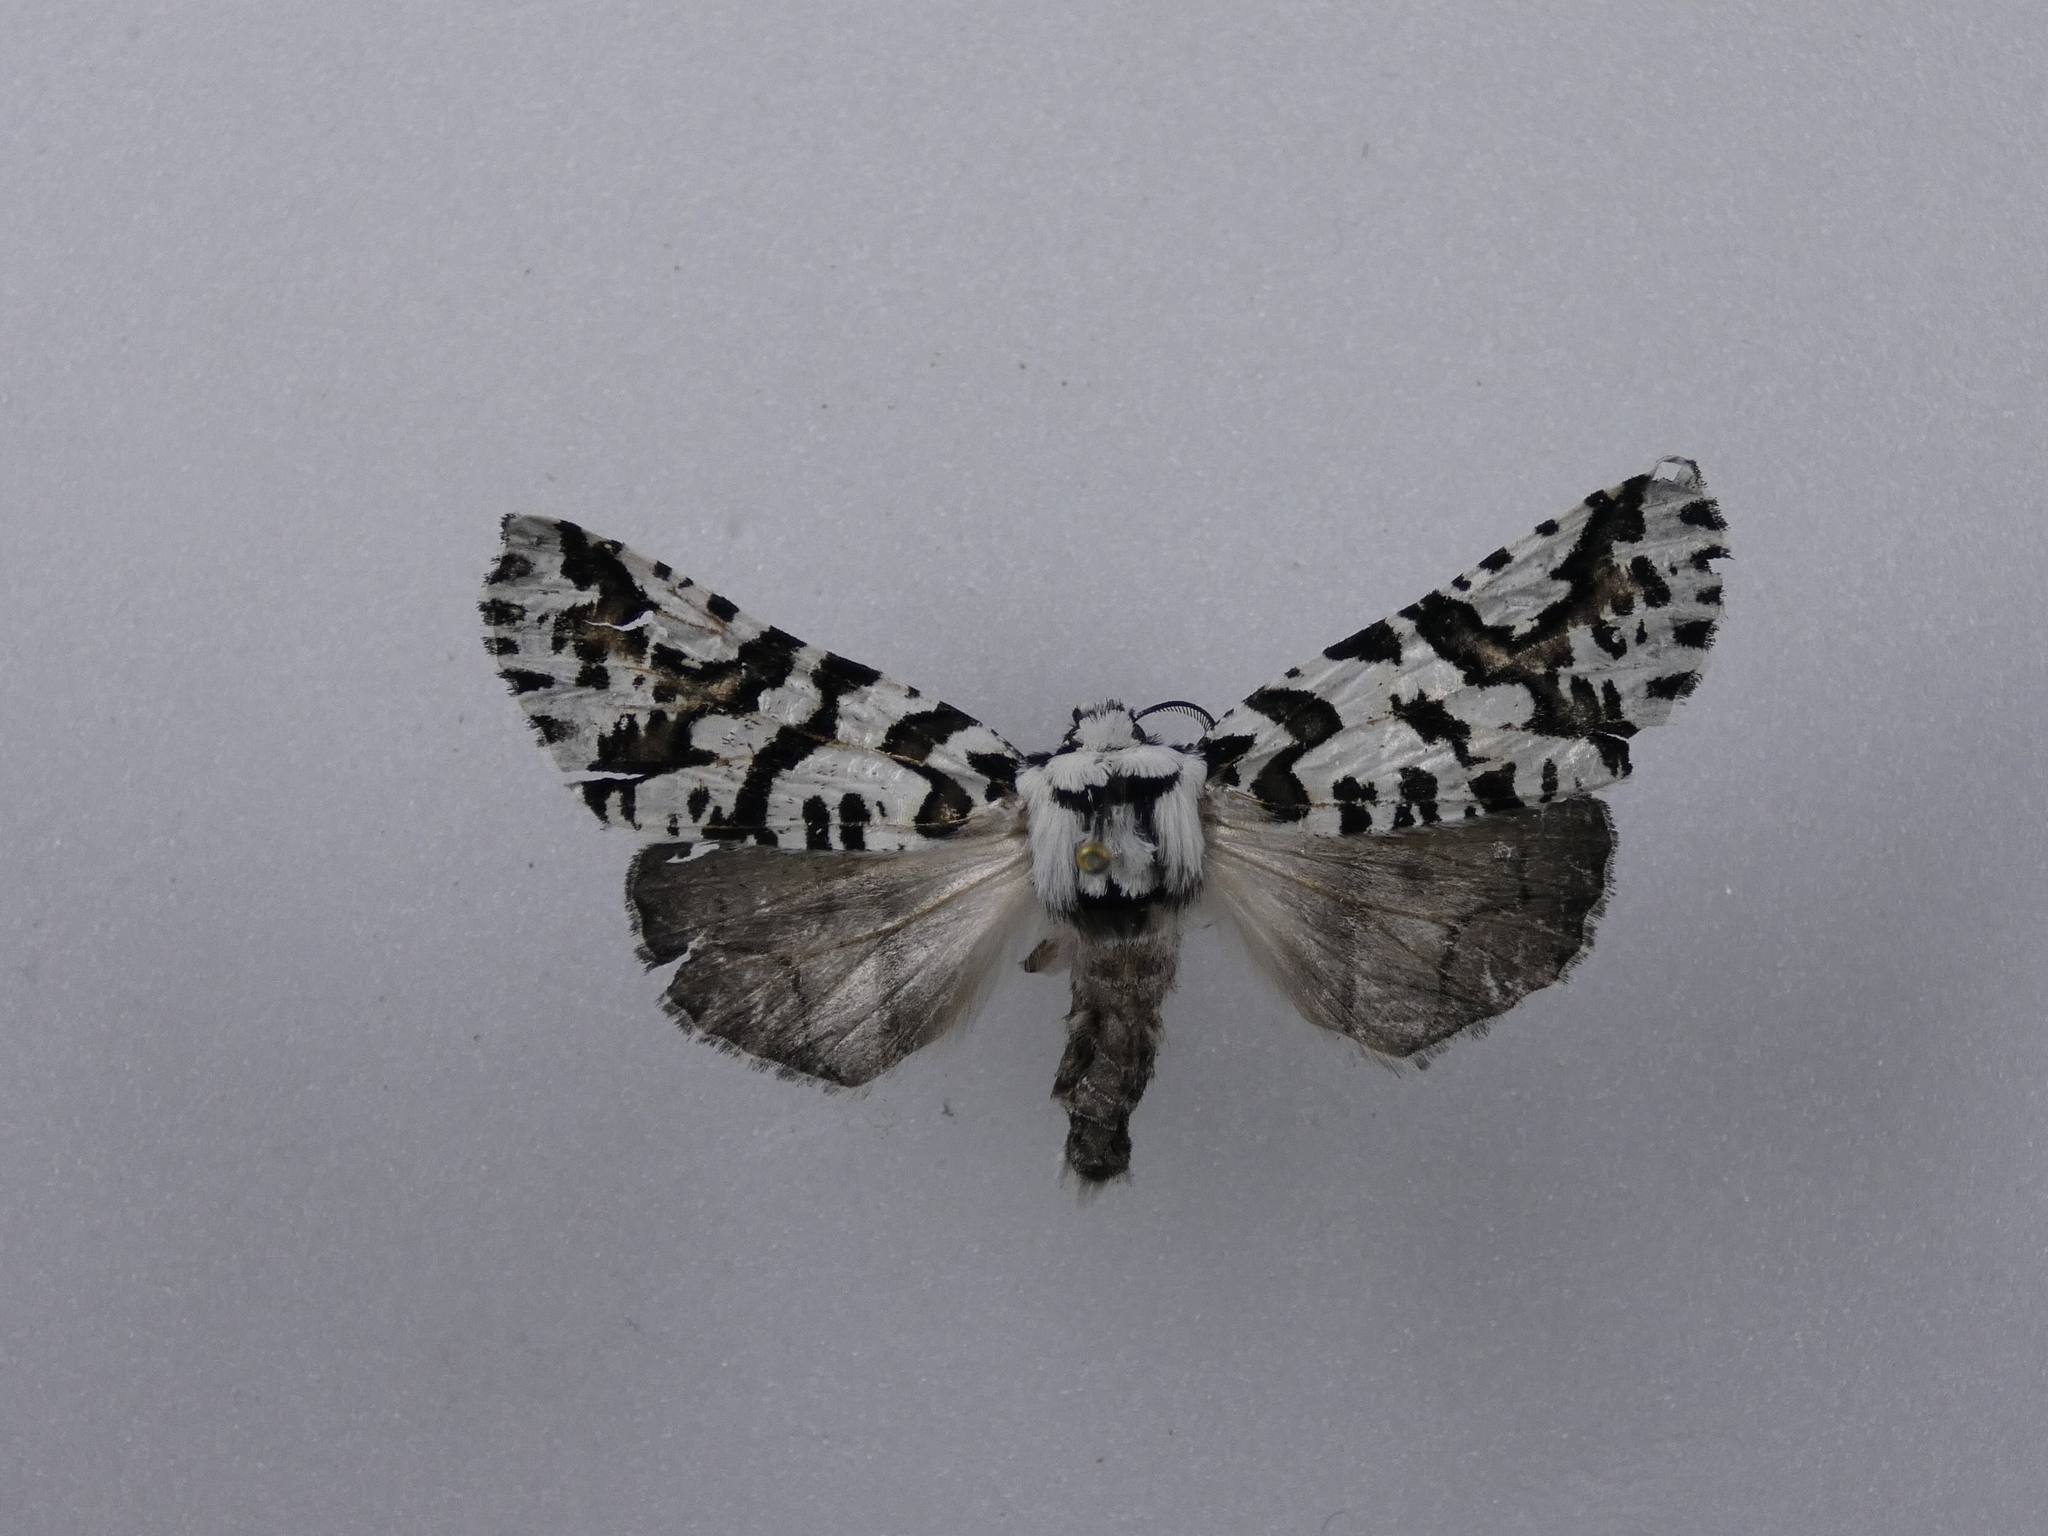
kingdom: Animalia
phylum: Arthropoda
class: Insecta
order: Lepidoptera
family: Geometridae
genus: Declana
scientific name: Declana
